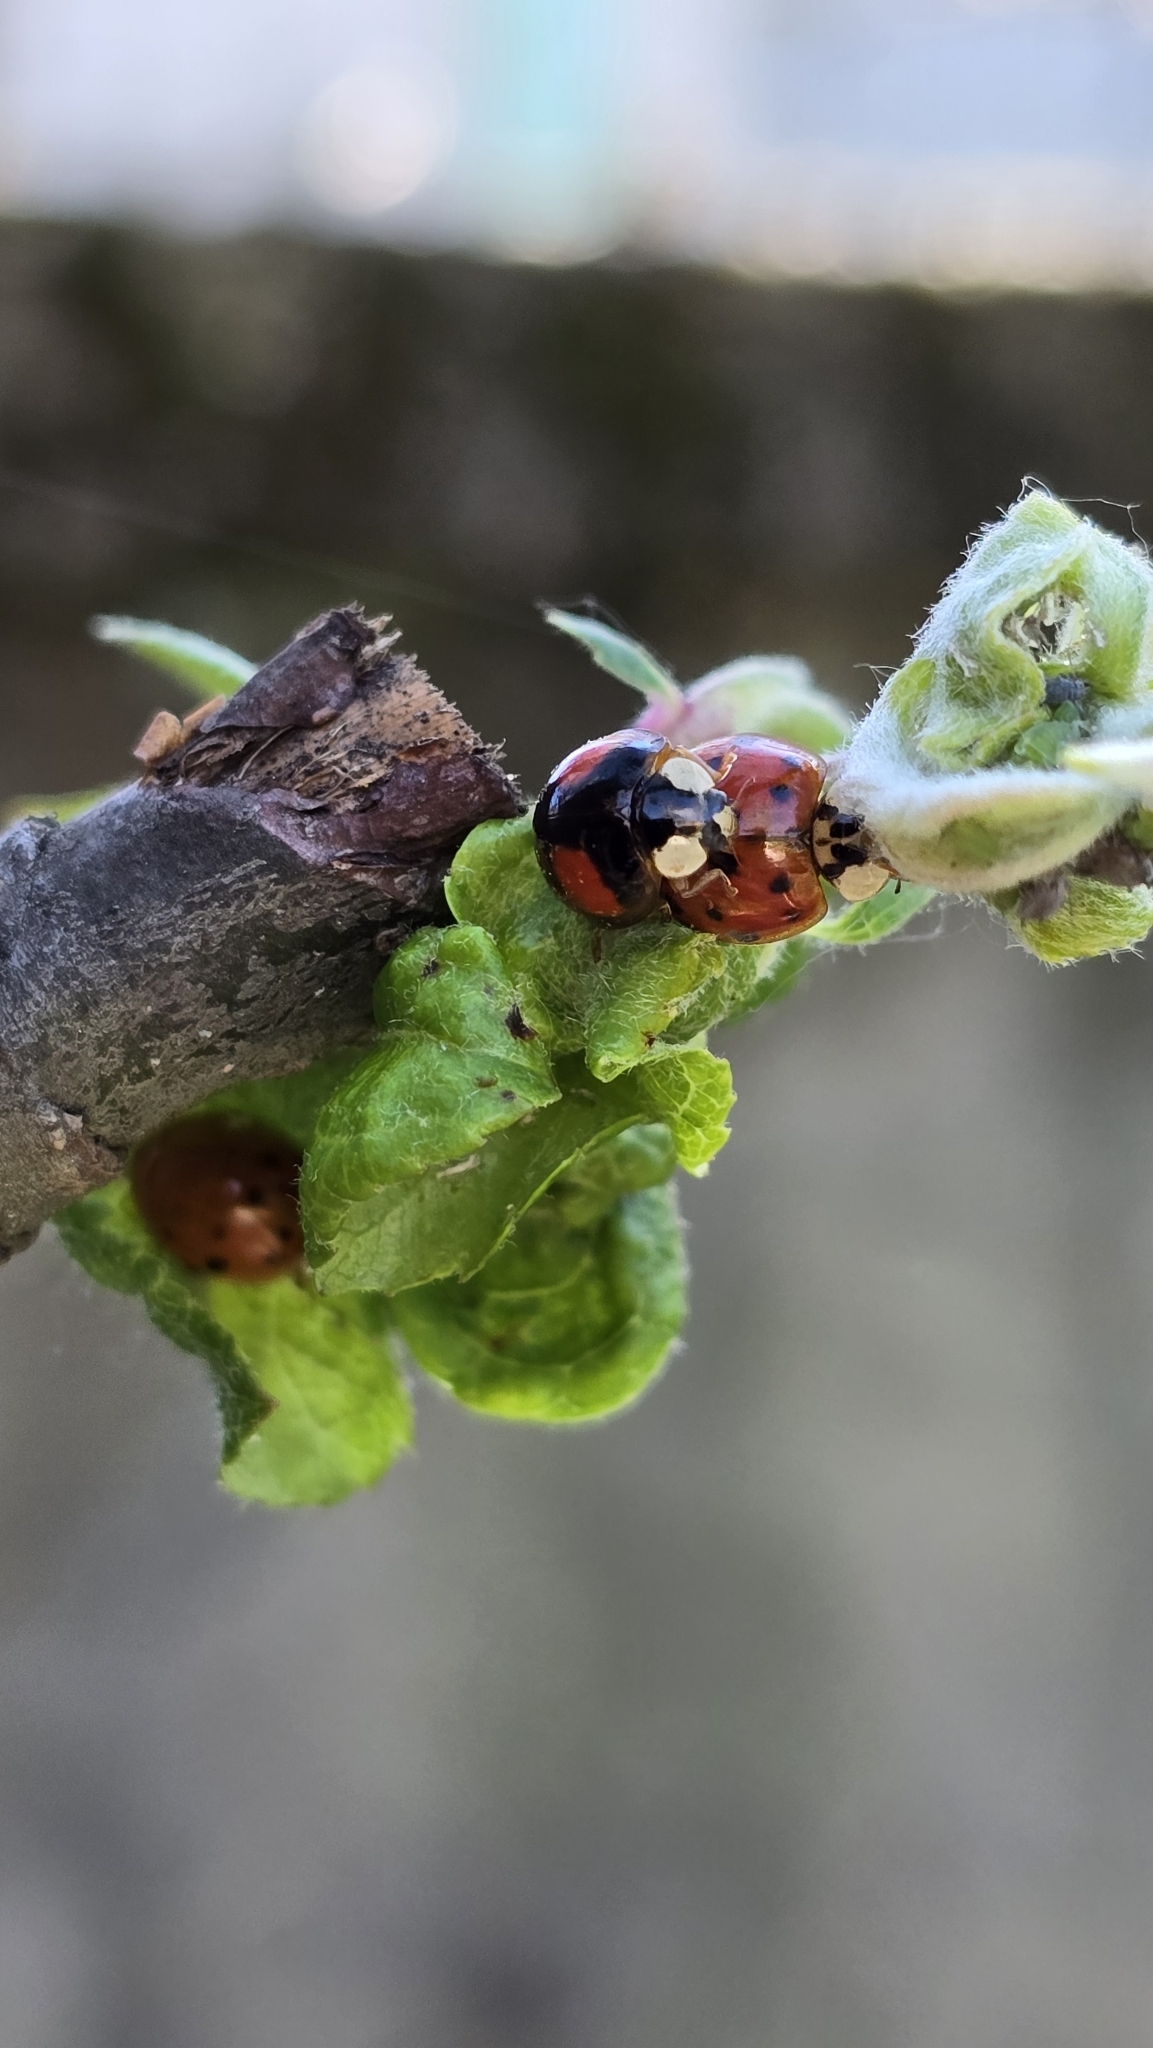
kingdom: Animalia
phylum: Arthropoda
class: Insecta
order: Coleoptera
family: Coccinellidae
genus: Harmonia
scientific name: Harmonia axyridis
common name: Harlequin ladybird
